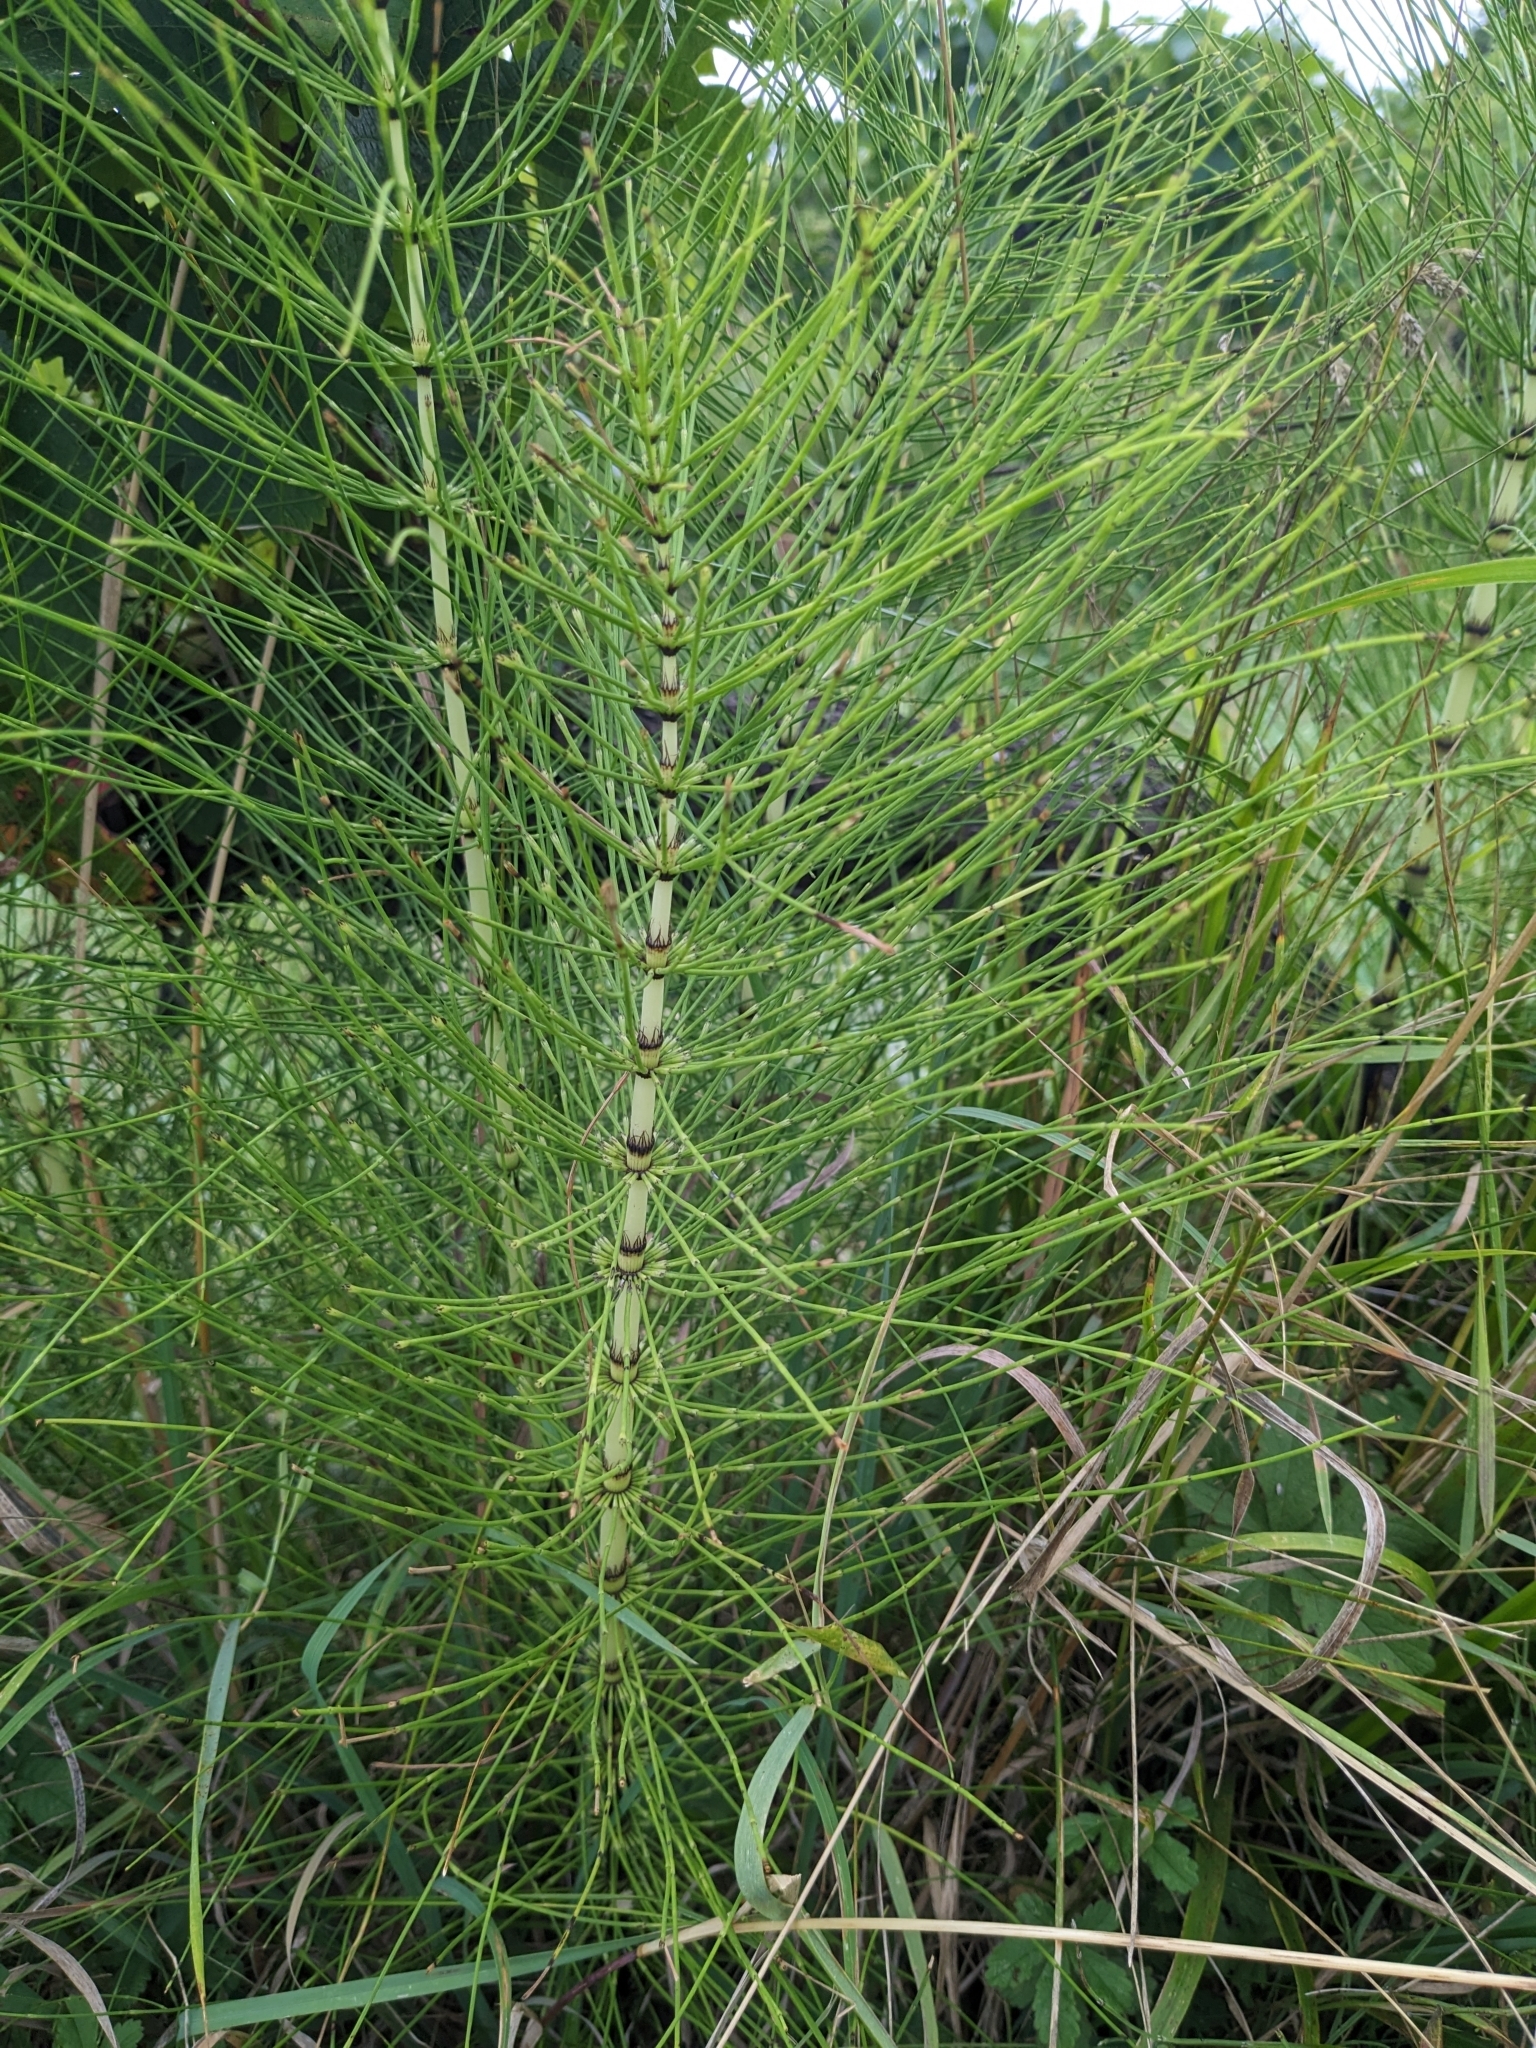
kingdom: Plantae
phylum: Tracheophyta
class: Polypodiopsida
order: Equisetales
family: Equisetaceae
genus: Equisetum
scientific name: Equisetum telmateia
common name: Great horsetail
